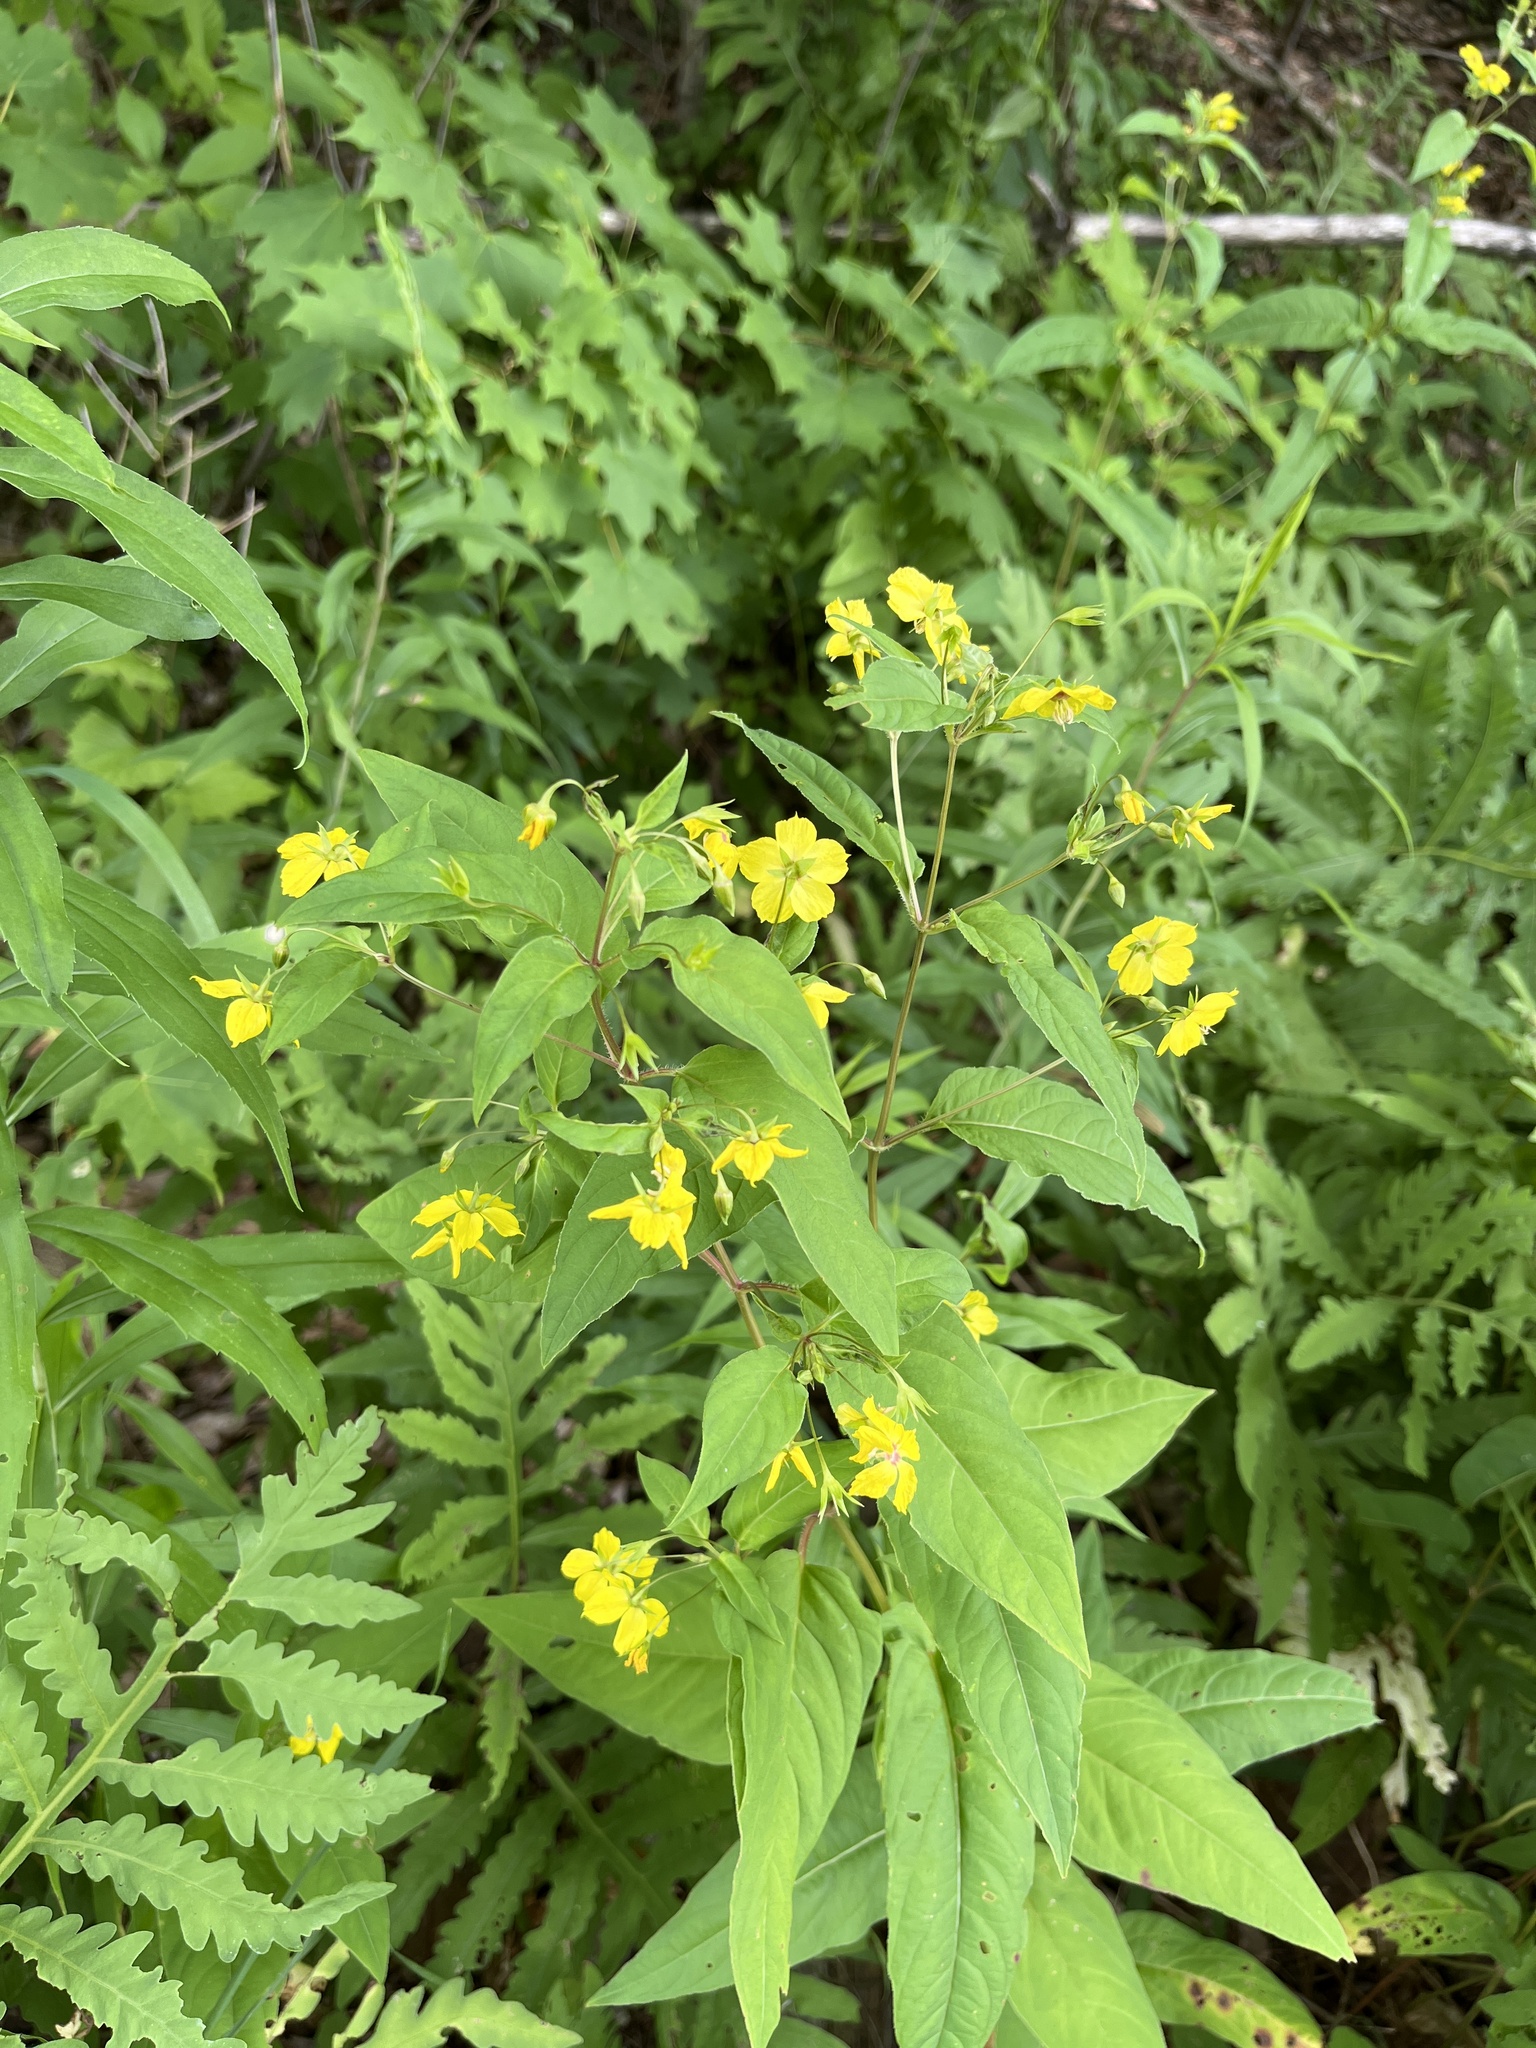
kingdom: Plantae
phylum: Tracheophyta
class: Magnoliopsida
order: Ericales
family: Primulaceae
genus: Lysimachia
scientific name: Lysimachia ciliata
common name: Fringed loosestrife
